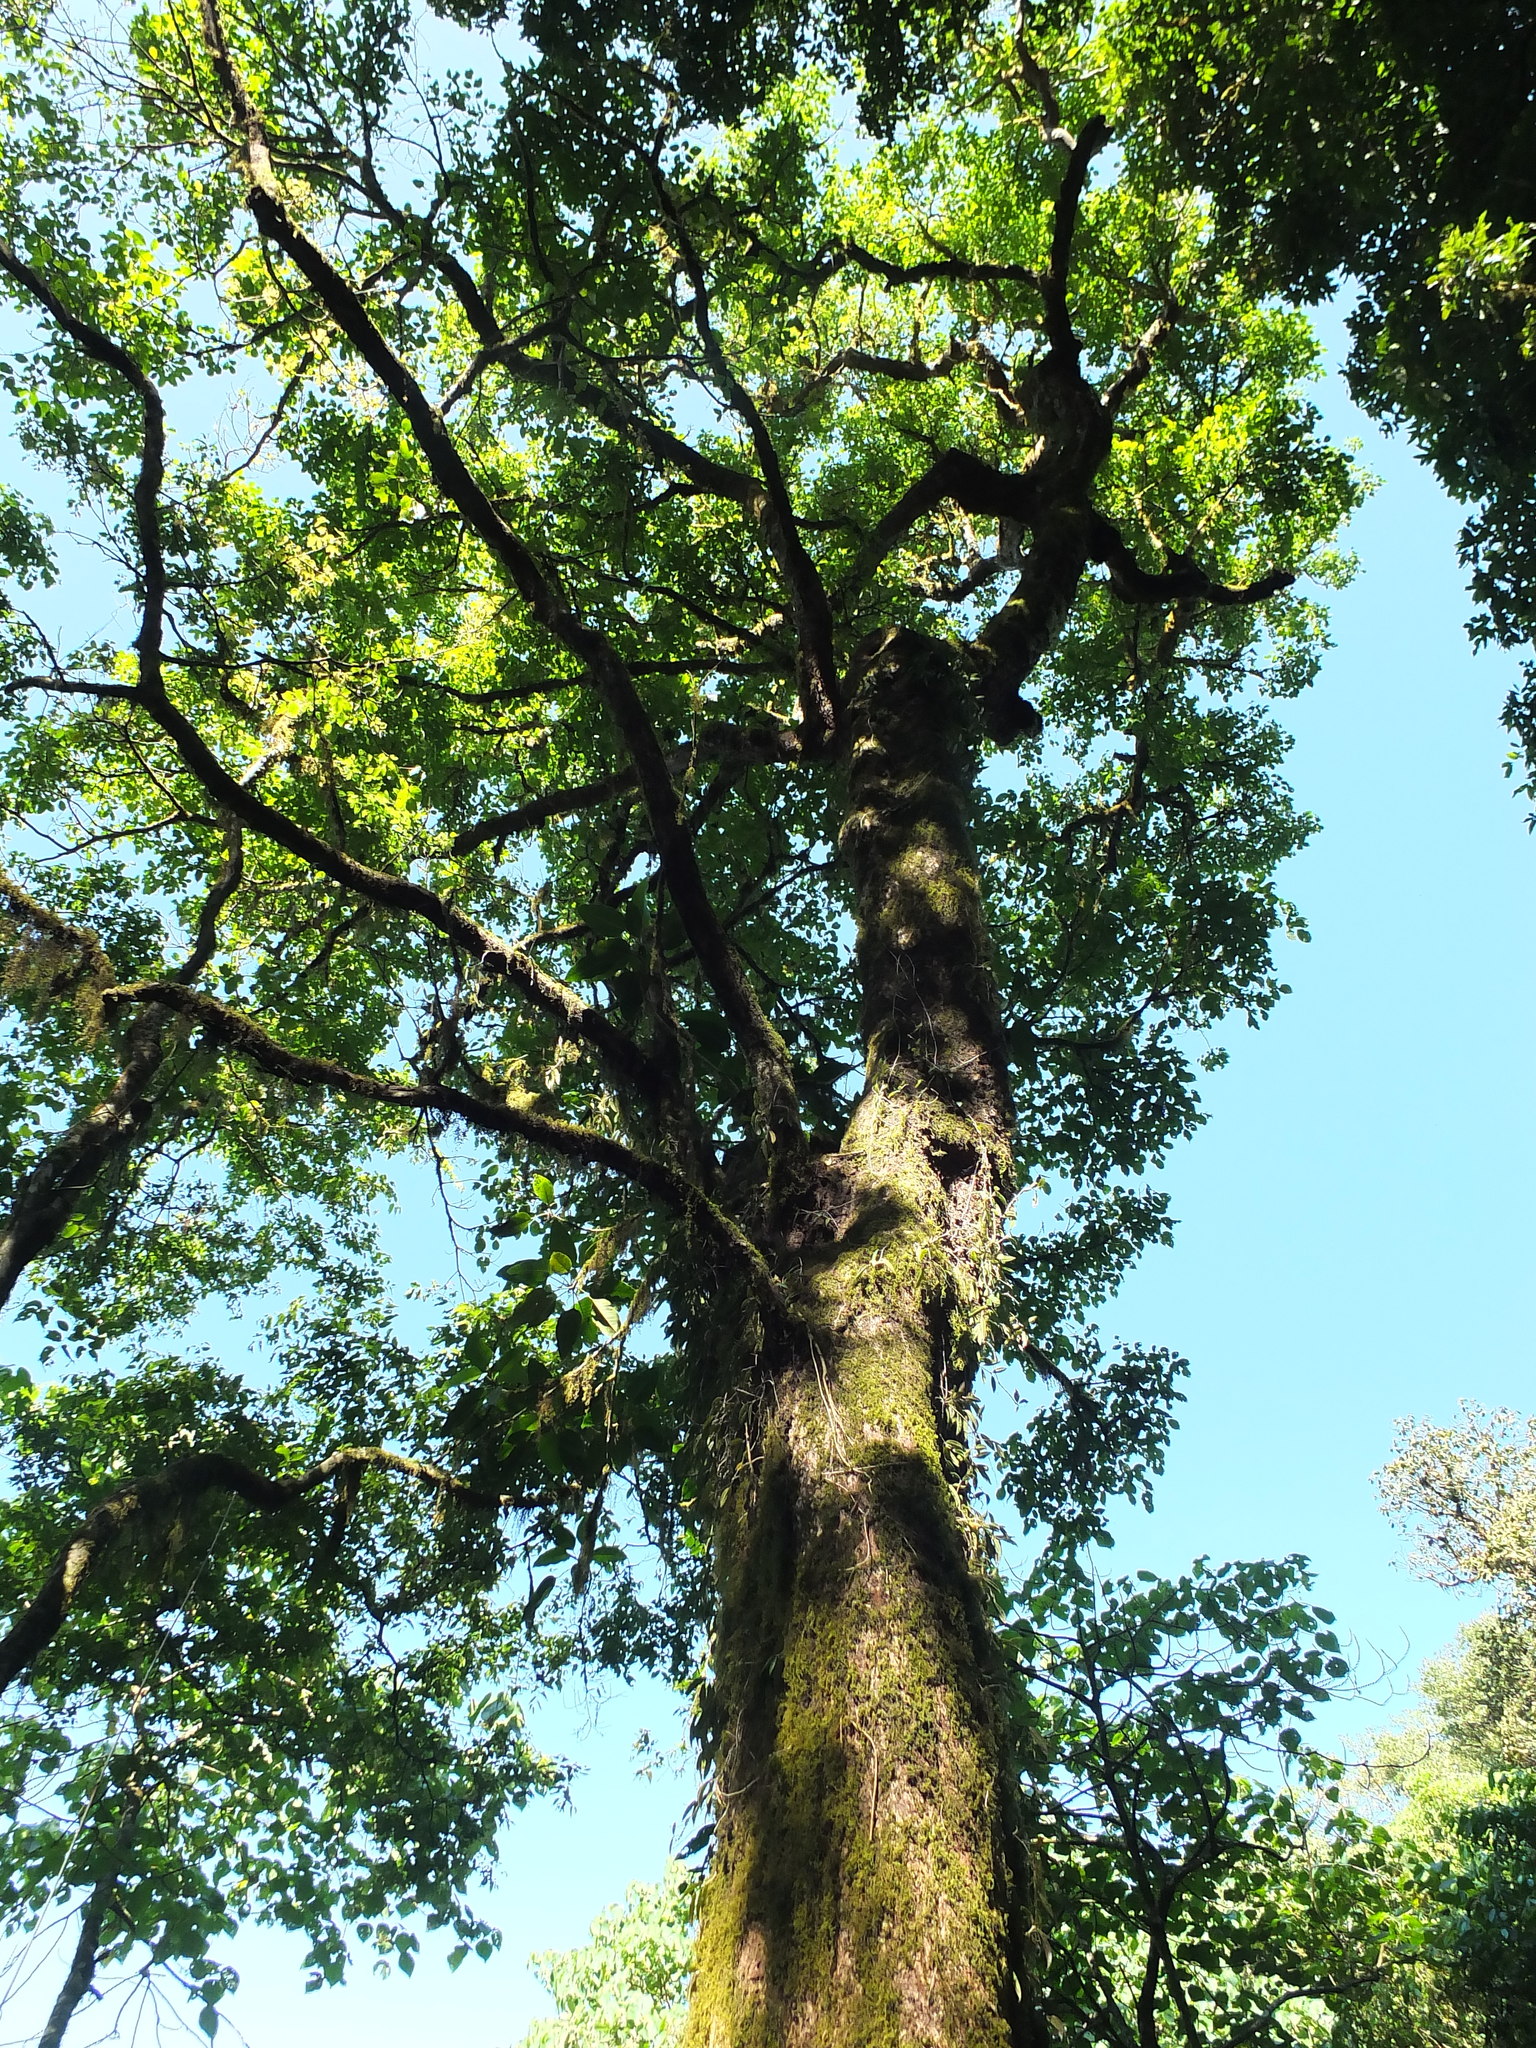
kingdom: Plantae
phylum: Tracheophyta
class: Magnoliopsida
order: Malpighiales
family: Phyllanthaceae
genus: Bischofia
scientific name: Bischofia javanica
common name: Javanese bishopwood
